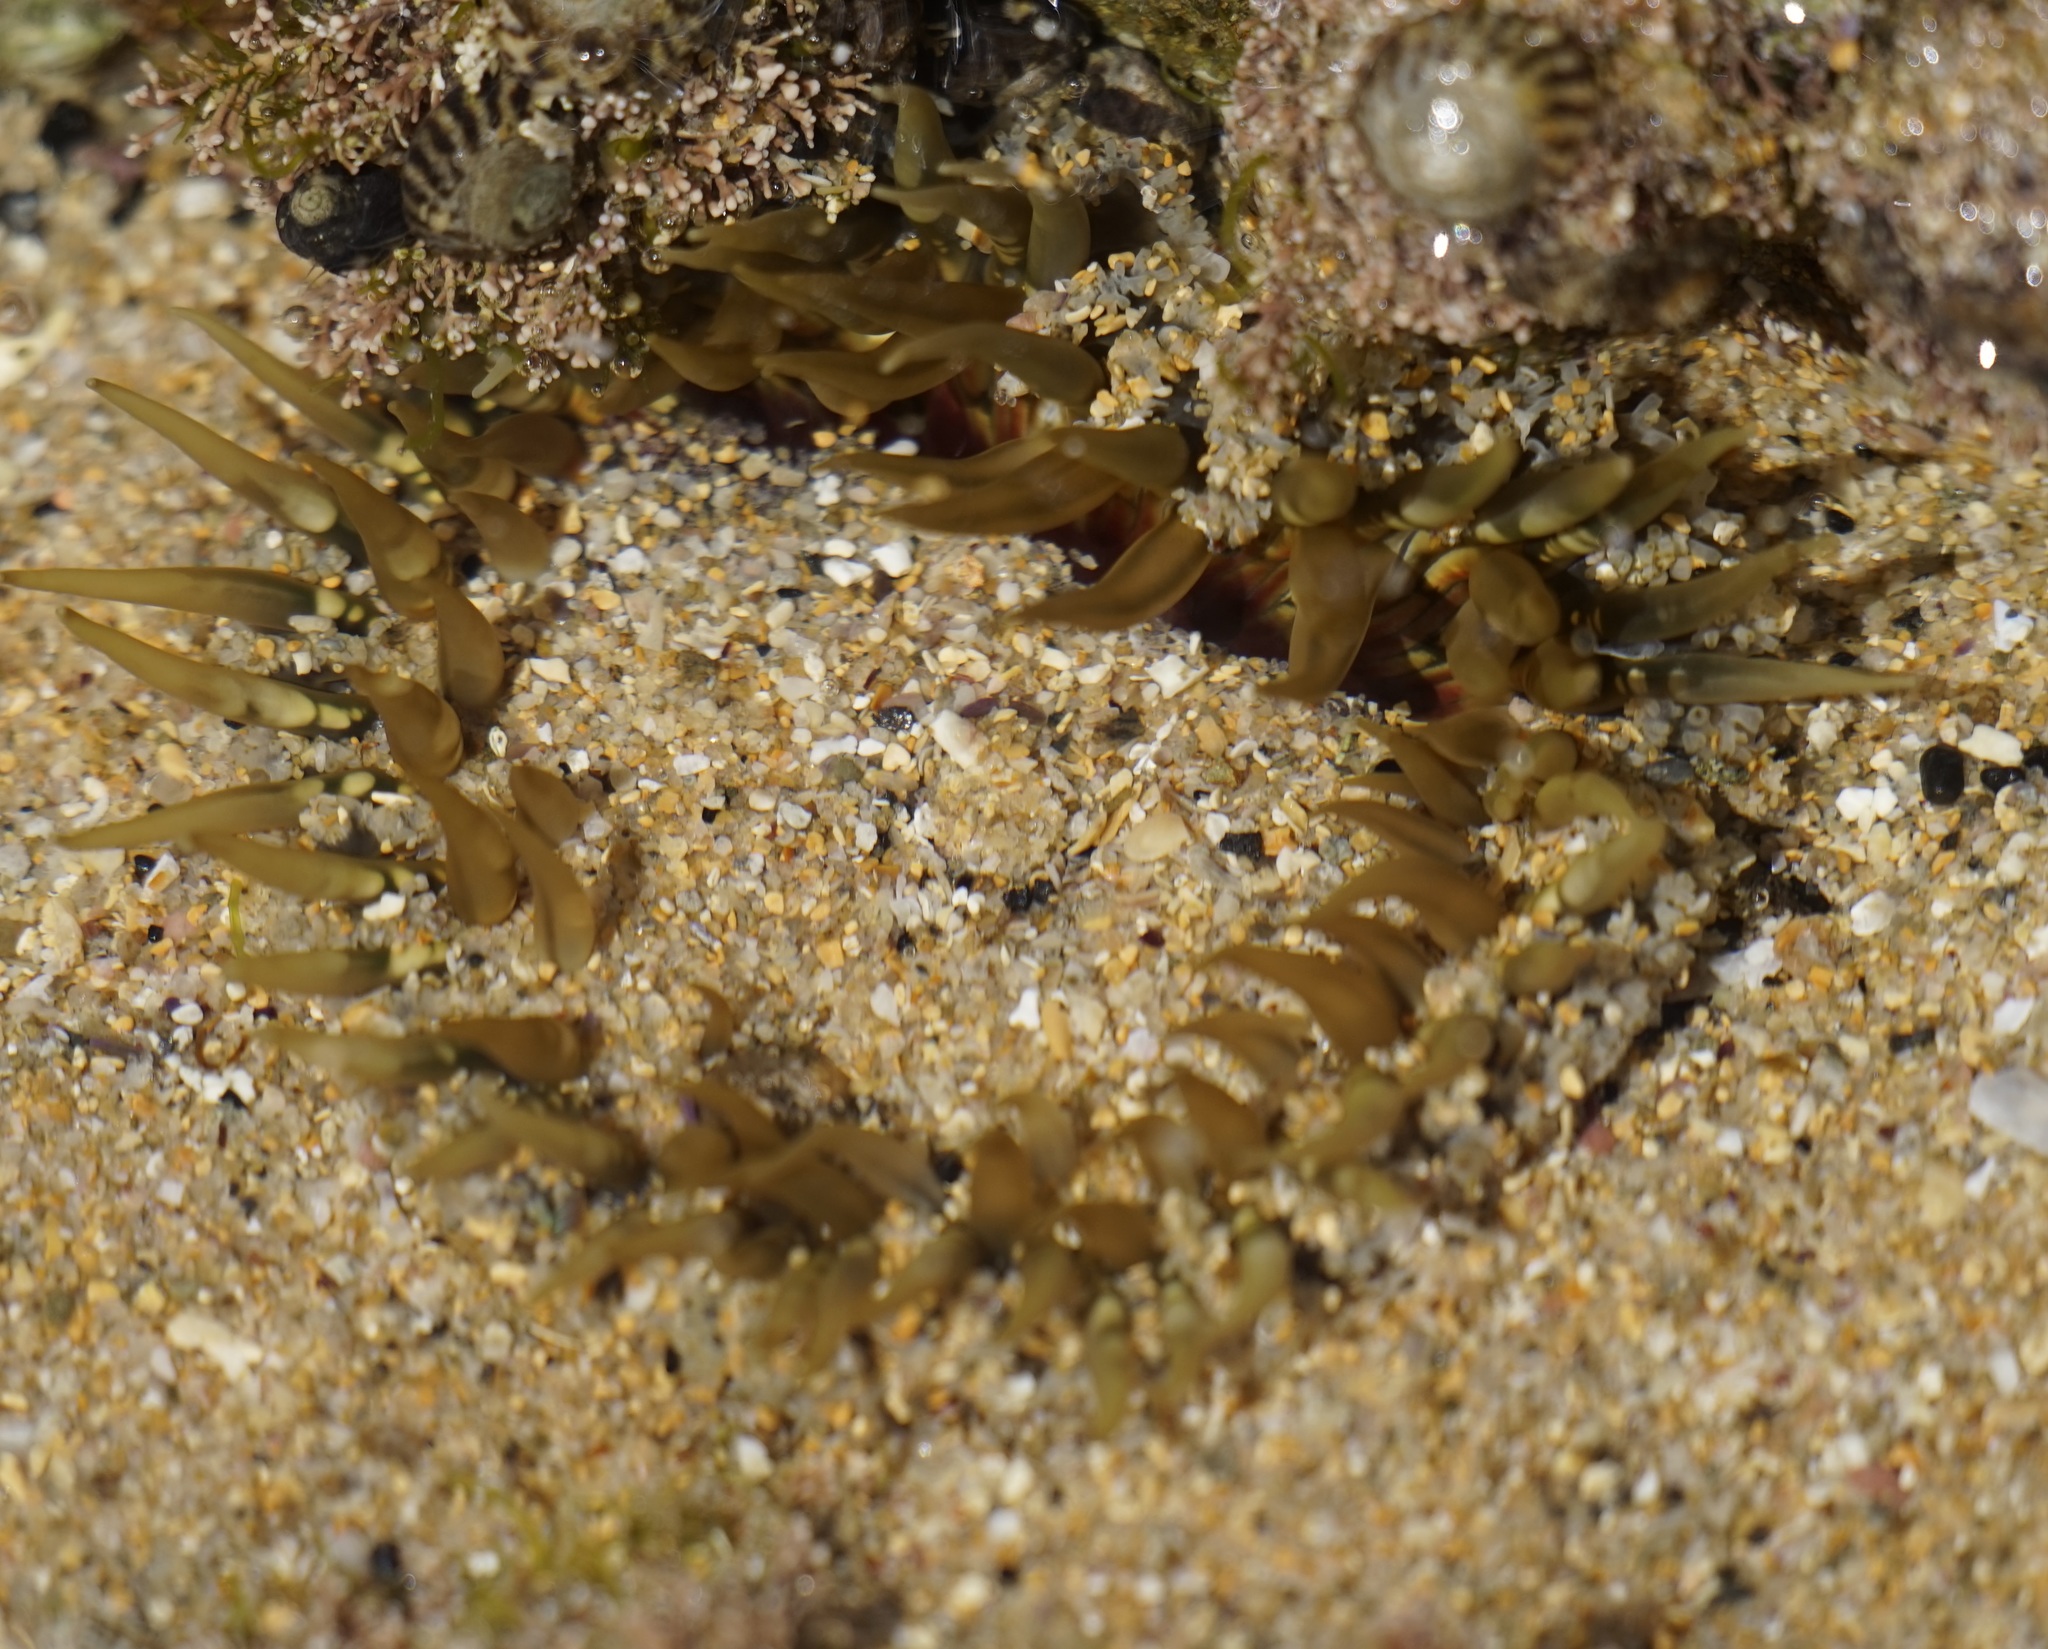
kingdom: Animalia
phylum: Cnidaria
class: Anthozoa
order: Actiniaria
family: Actiniidae
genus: Oulactis
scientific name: Oulactis muscosa
